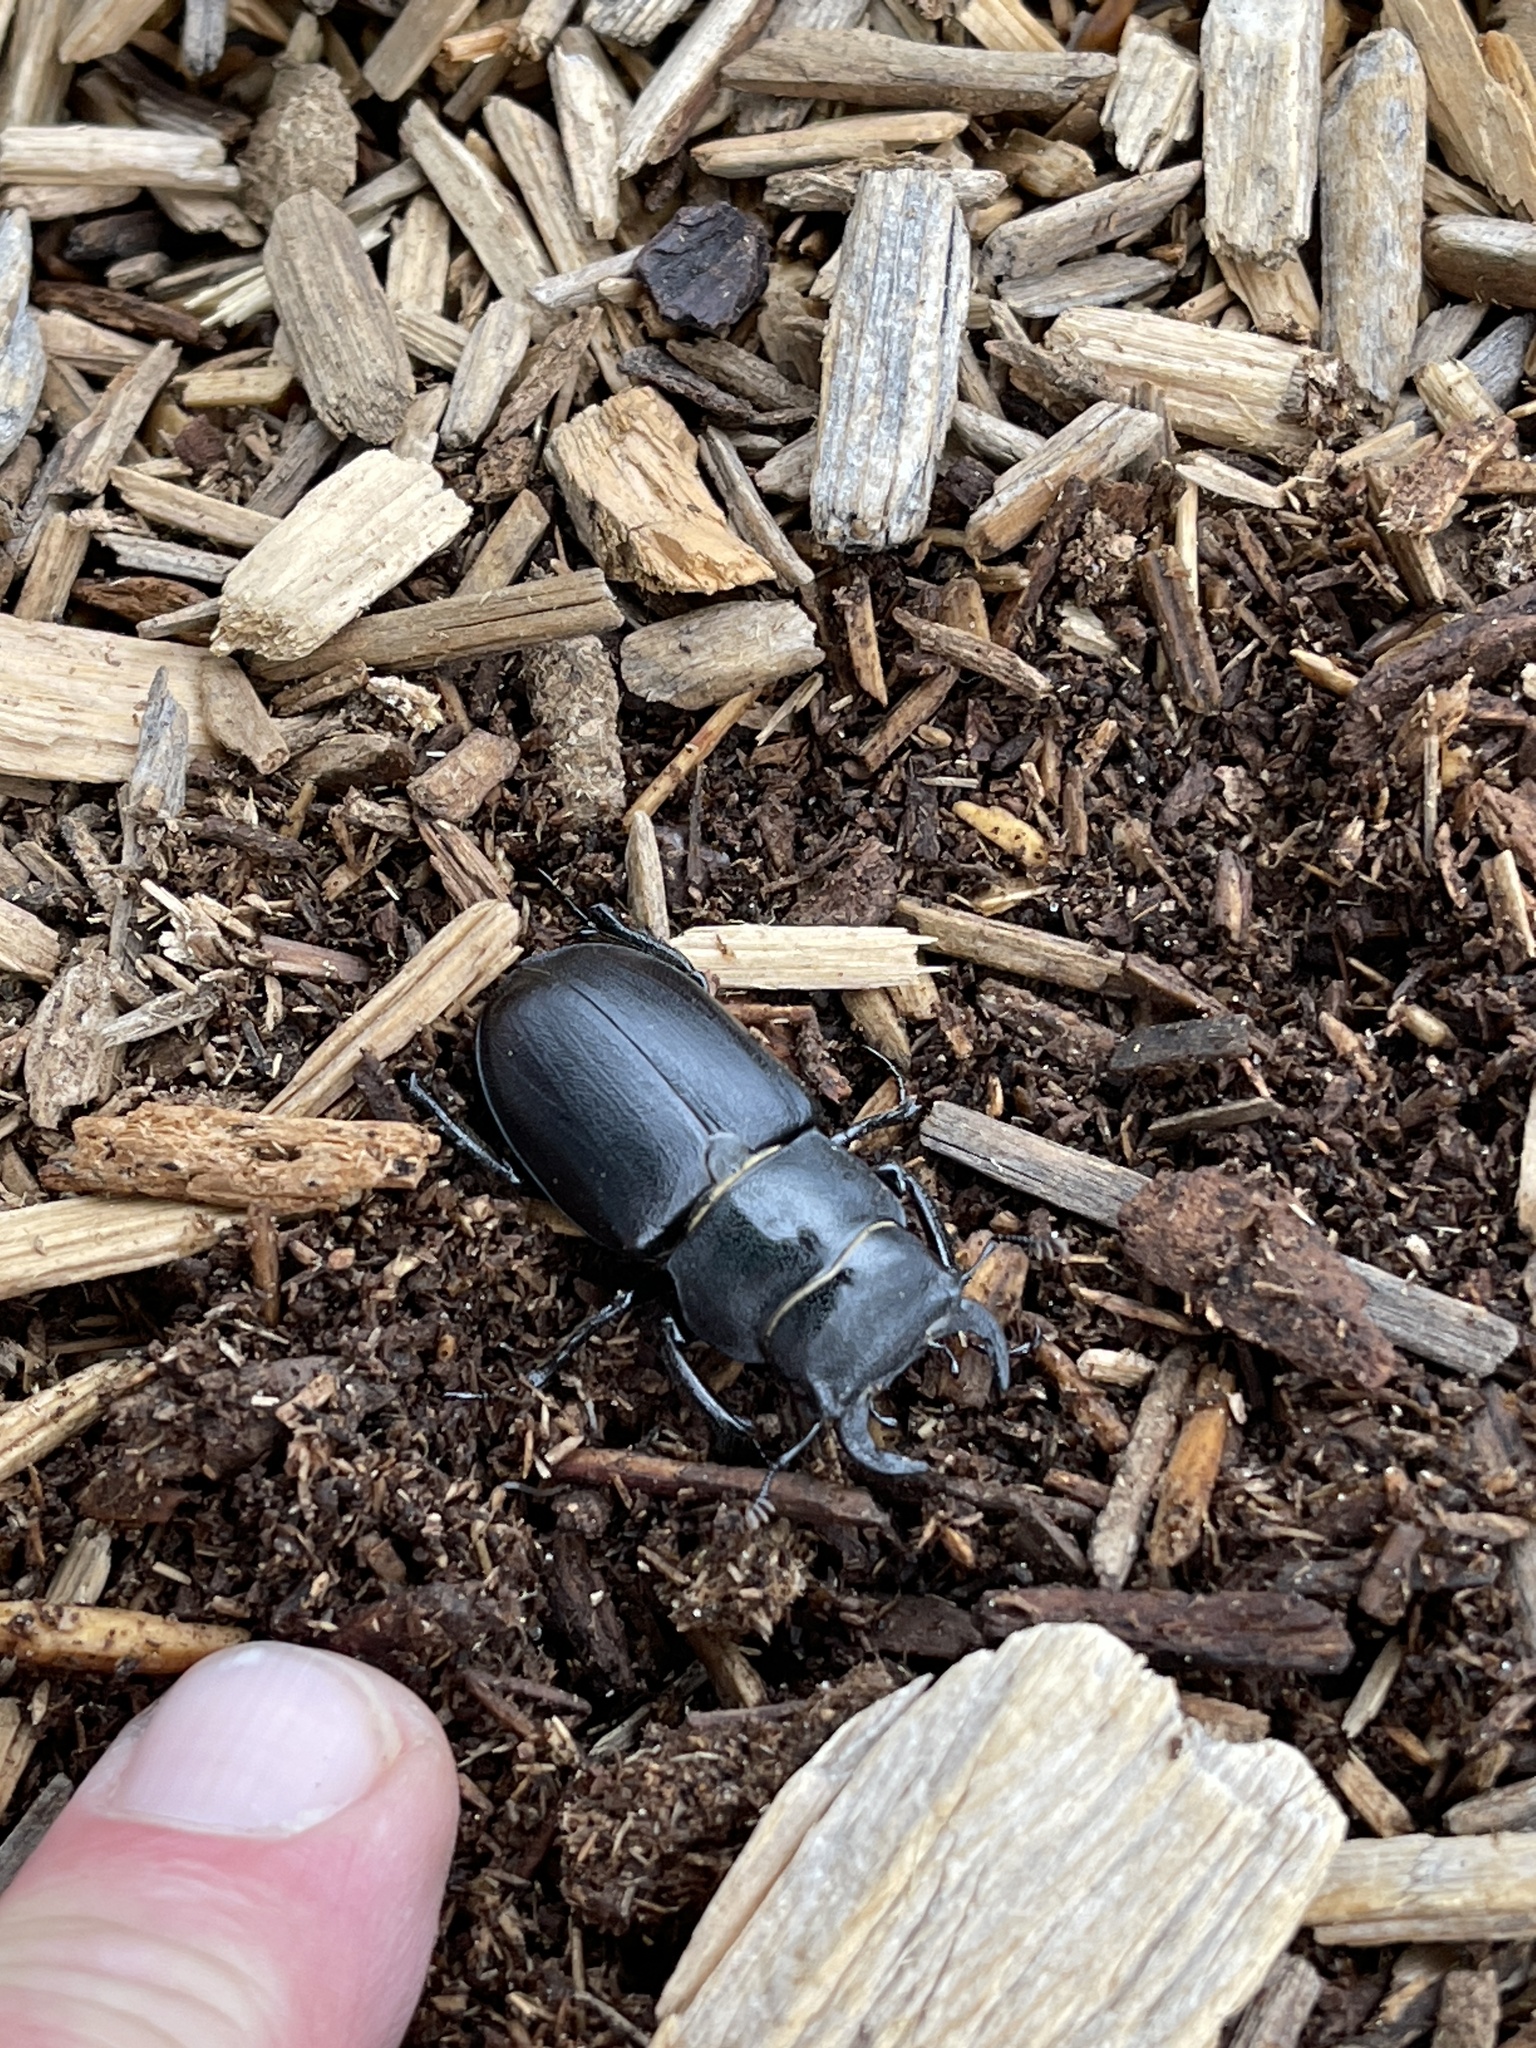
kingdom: Animalia
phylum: Arthropoda
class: Insecta
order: Coleoptera
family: Lucanidae
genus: Lucanus
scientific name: Lucanus mazama
